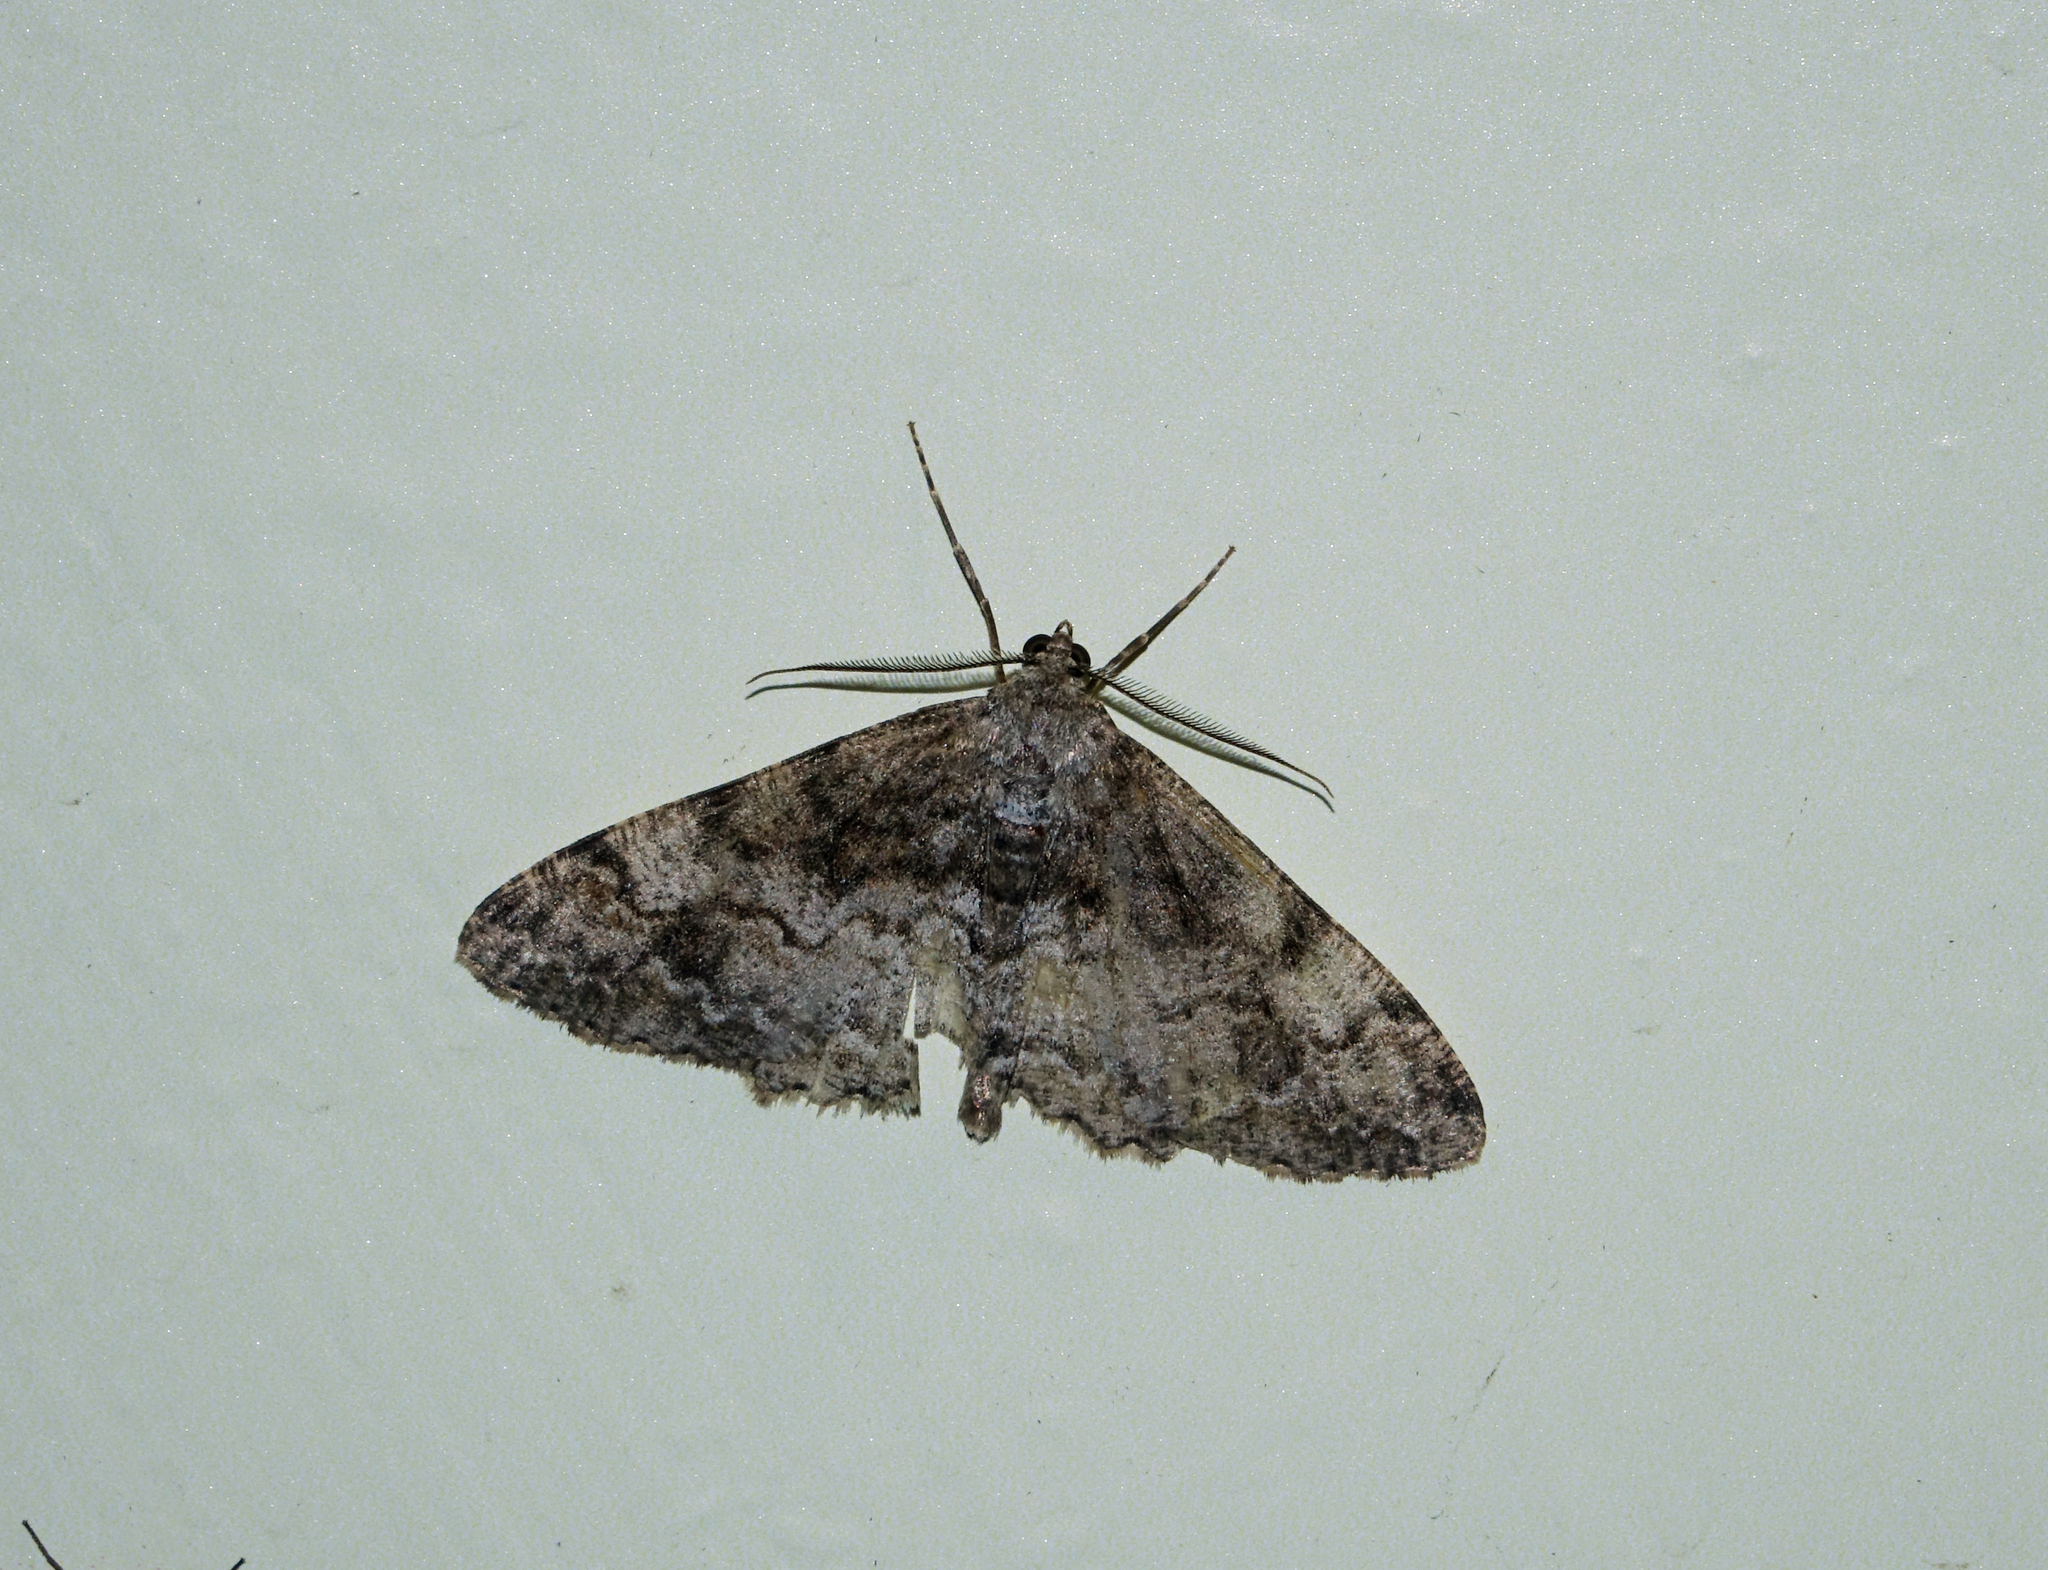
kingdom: Animalia
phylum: Arthropoda
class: Insecta
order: Lepidoptera
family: Geometridae
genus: Alcis
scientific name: Alcis repandata
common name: Mottled beauty
